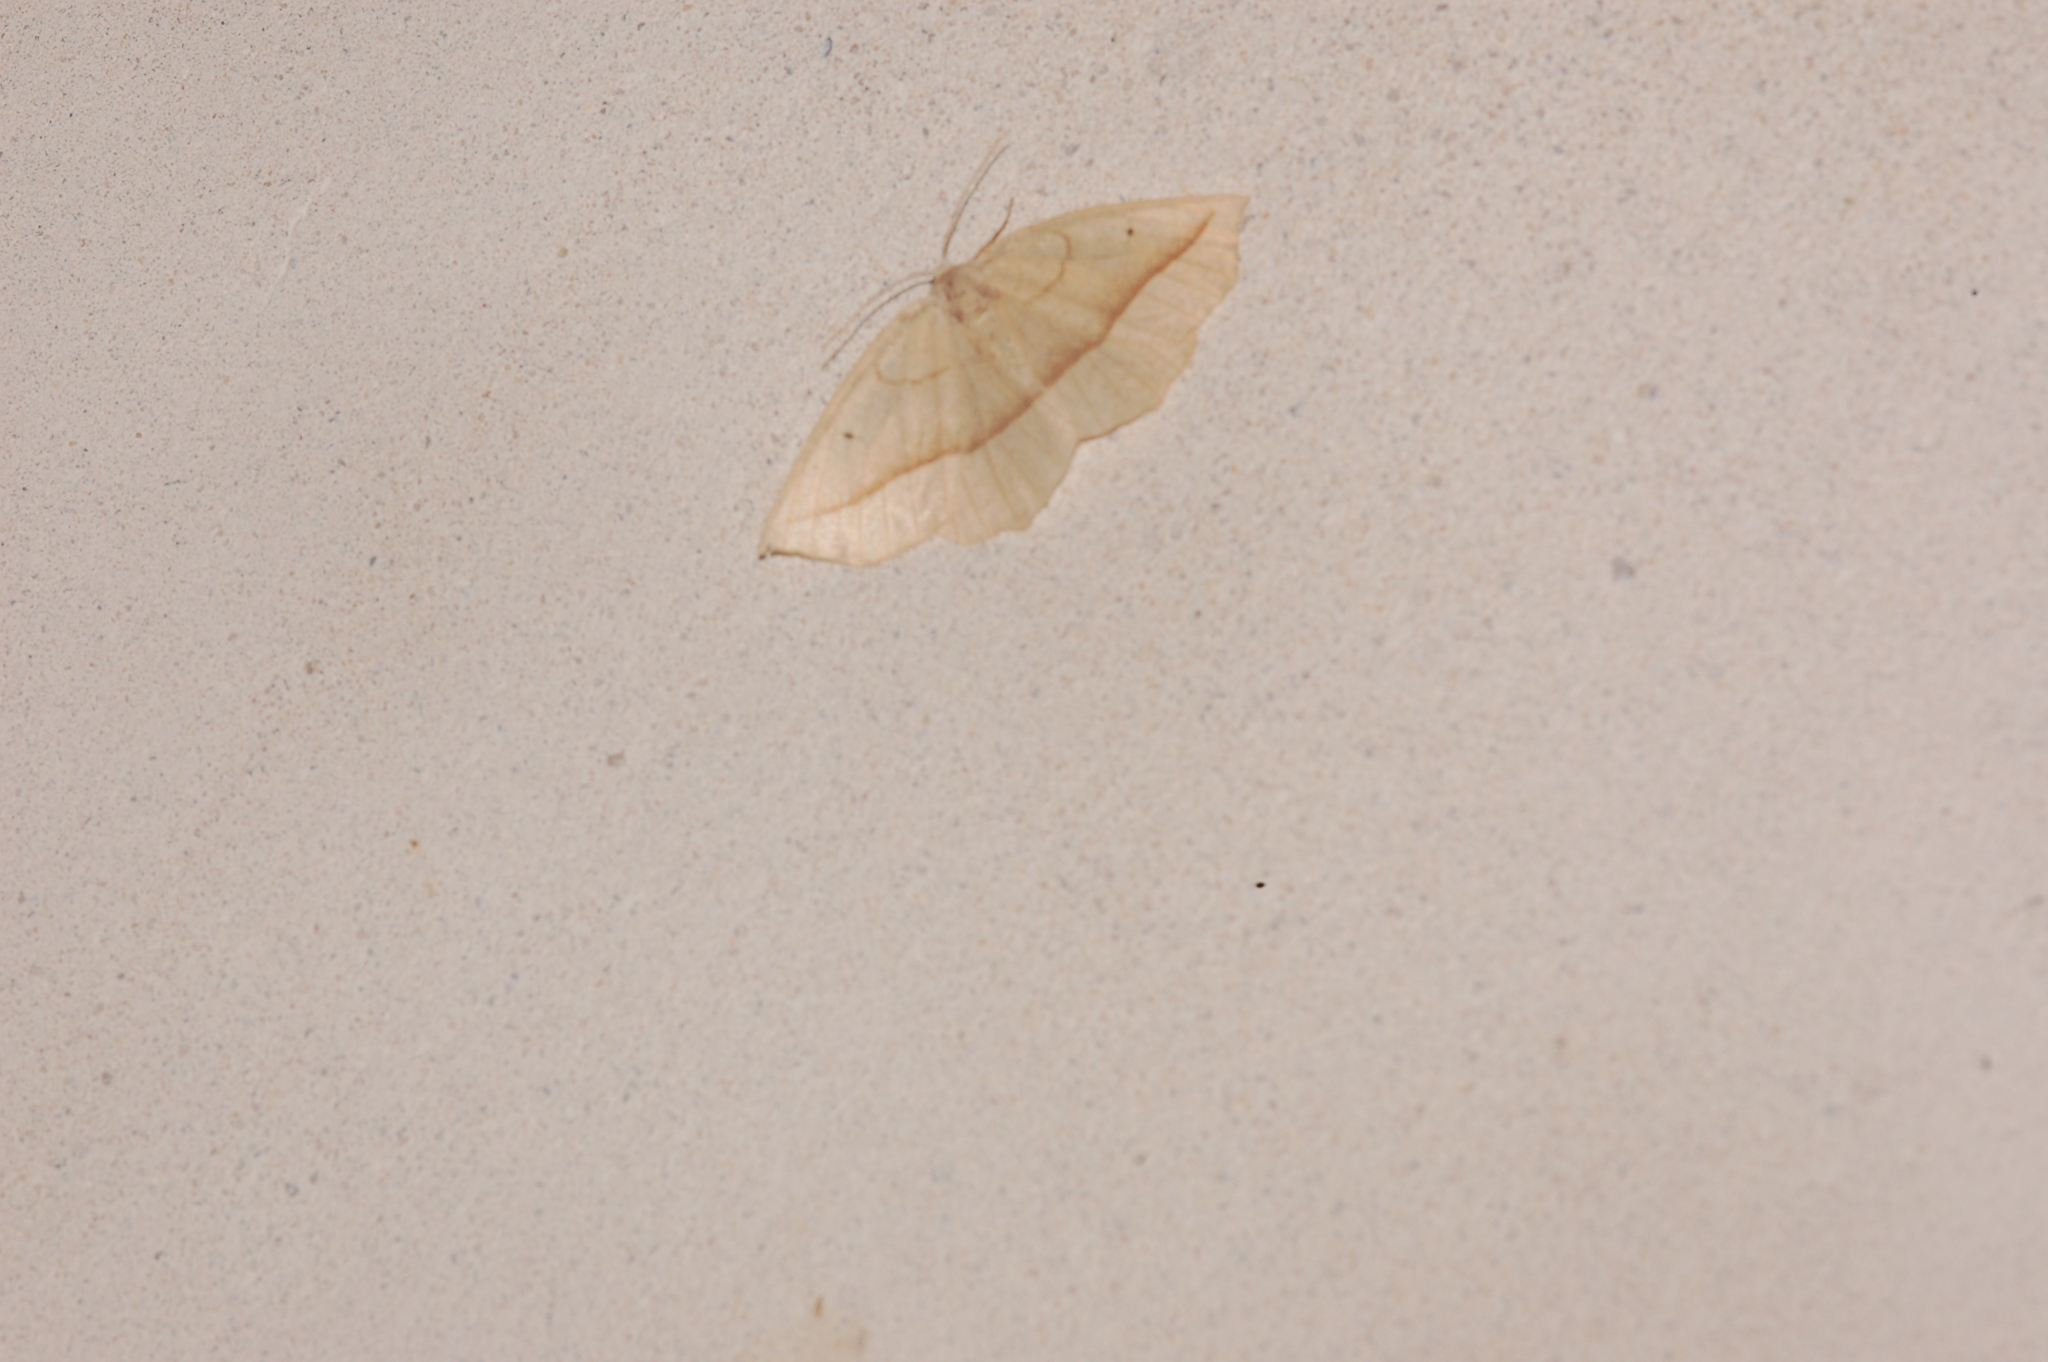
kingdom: Animalia
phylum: Arthropoda
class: Insecta
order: Lepidoptera
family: Geometridae
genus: Eusarca
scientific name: Eusarca confusaria
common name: Confused eusarca
